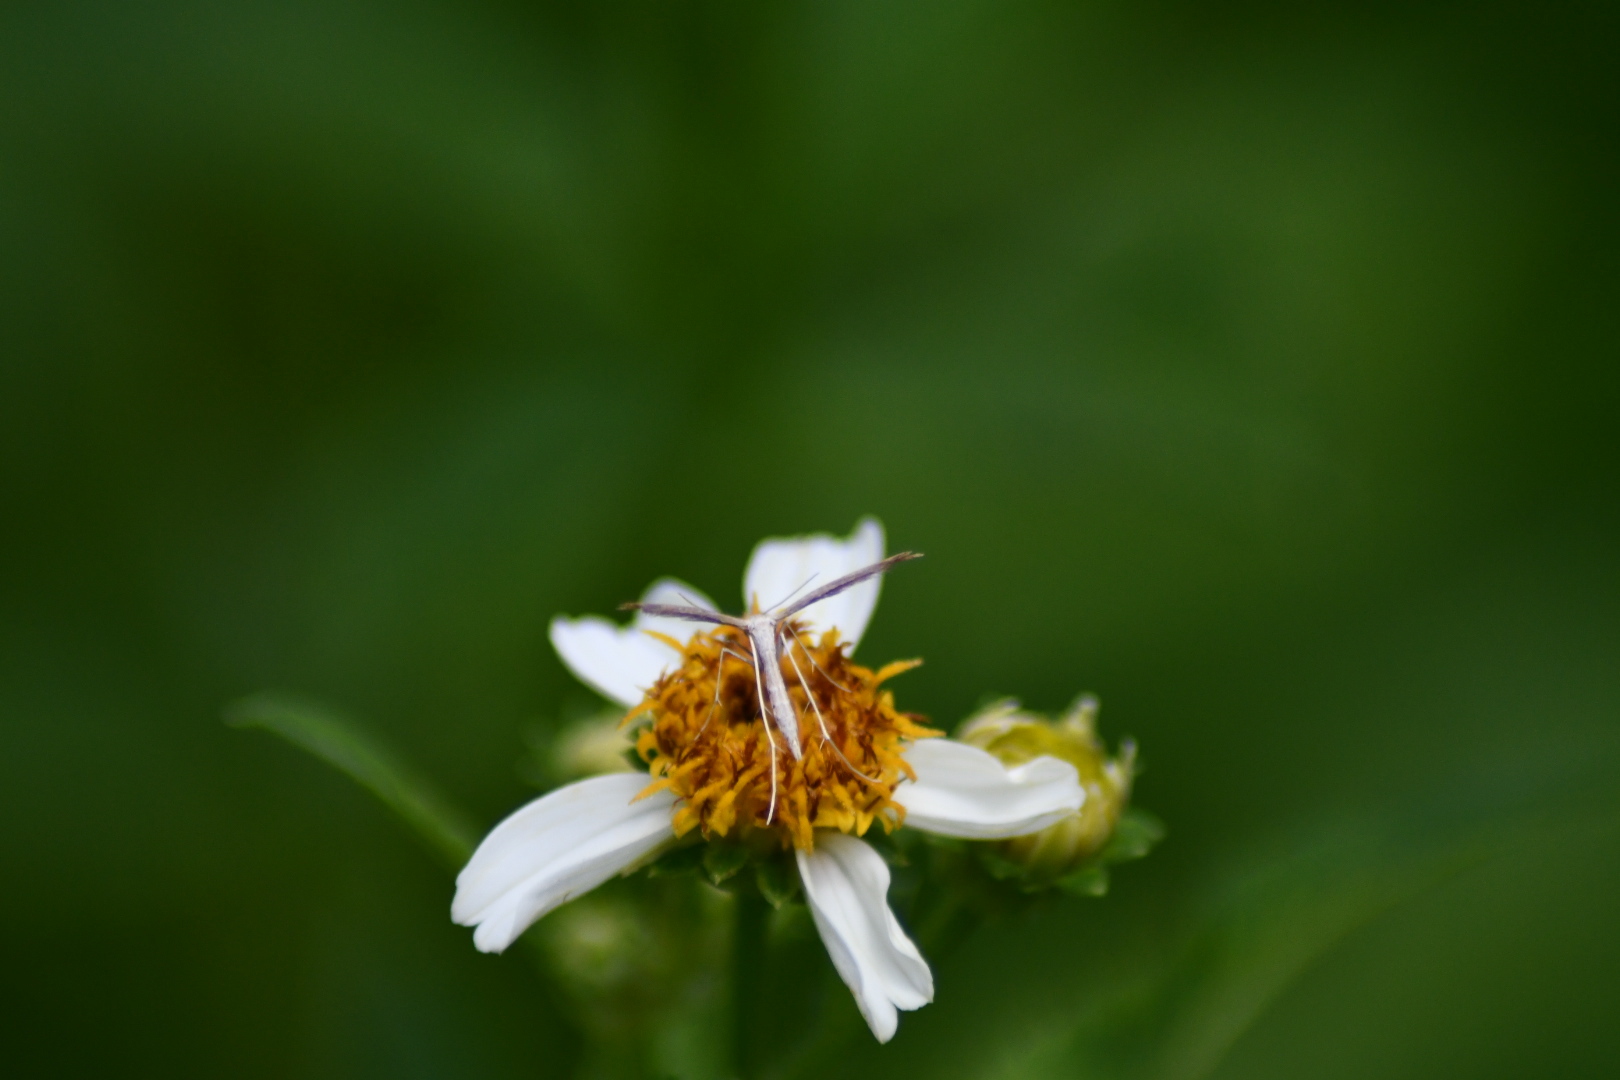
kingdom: Animalia
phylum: Arthropoda
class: Insecta
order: Lepidoptera
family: Pterophoridae
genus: Lioptilodes
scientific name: Lioptilodes albistriolatus
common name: Moth
